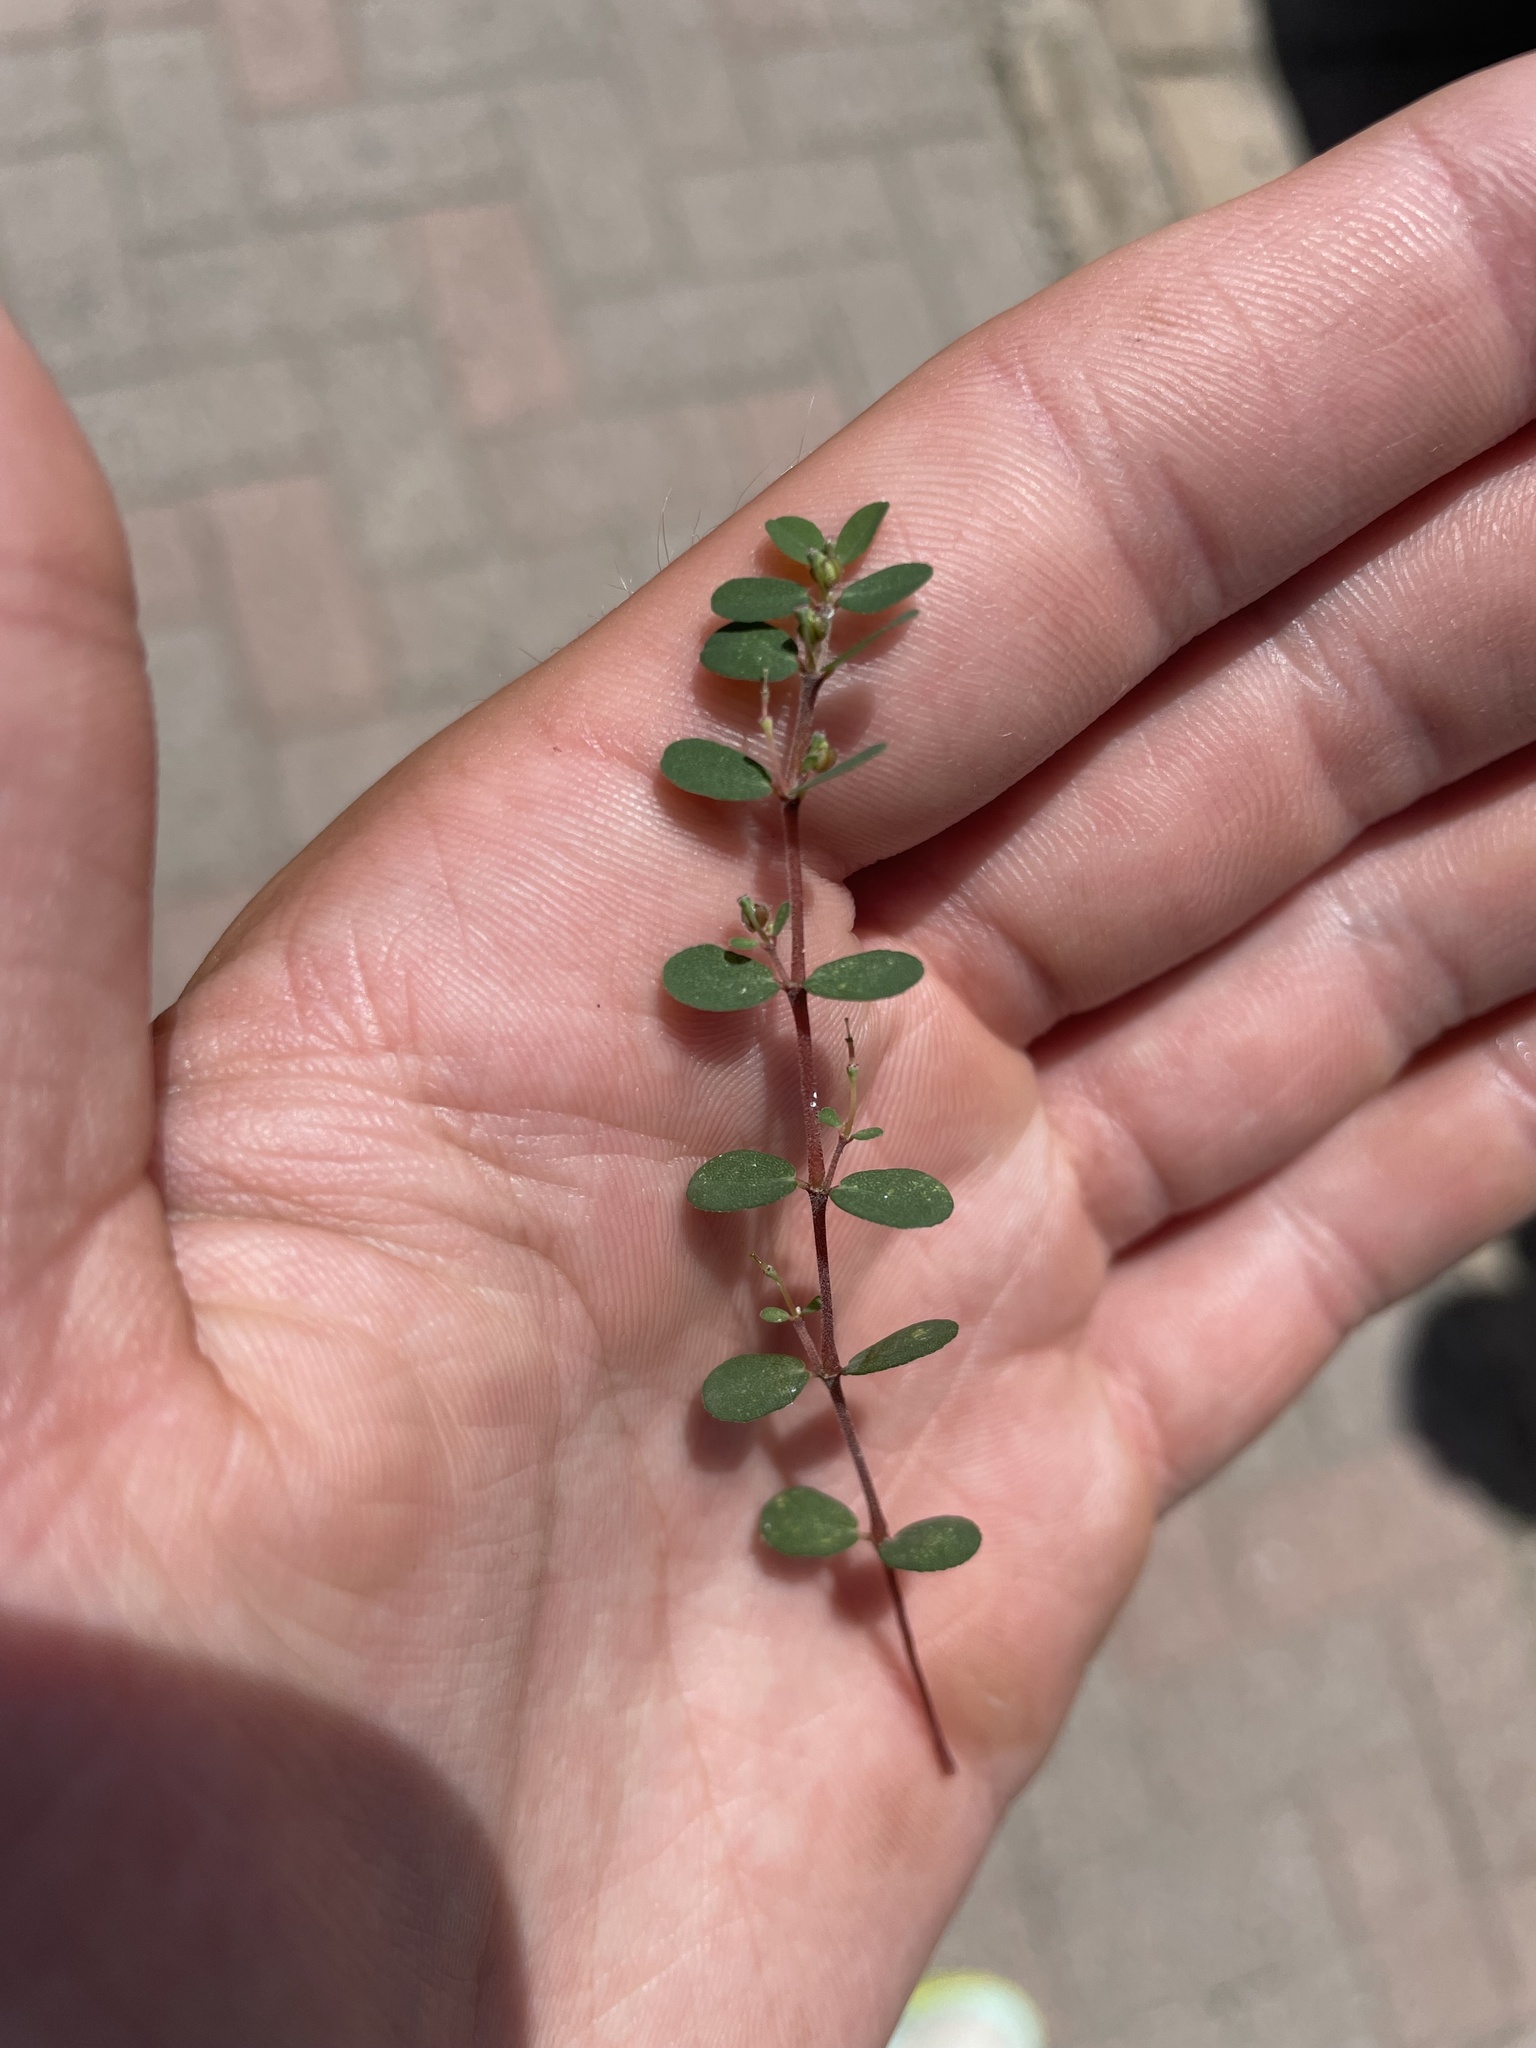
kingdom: Plantae
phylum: Tracheophyta
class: Magnoliopsida
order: Malpighiales
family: Euphorbiaceae
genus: Euphorbia
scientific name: Euphorbia prostrata
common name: Prostrate sandmat
